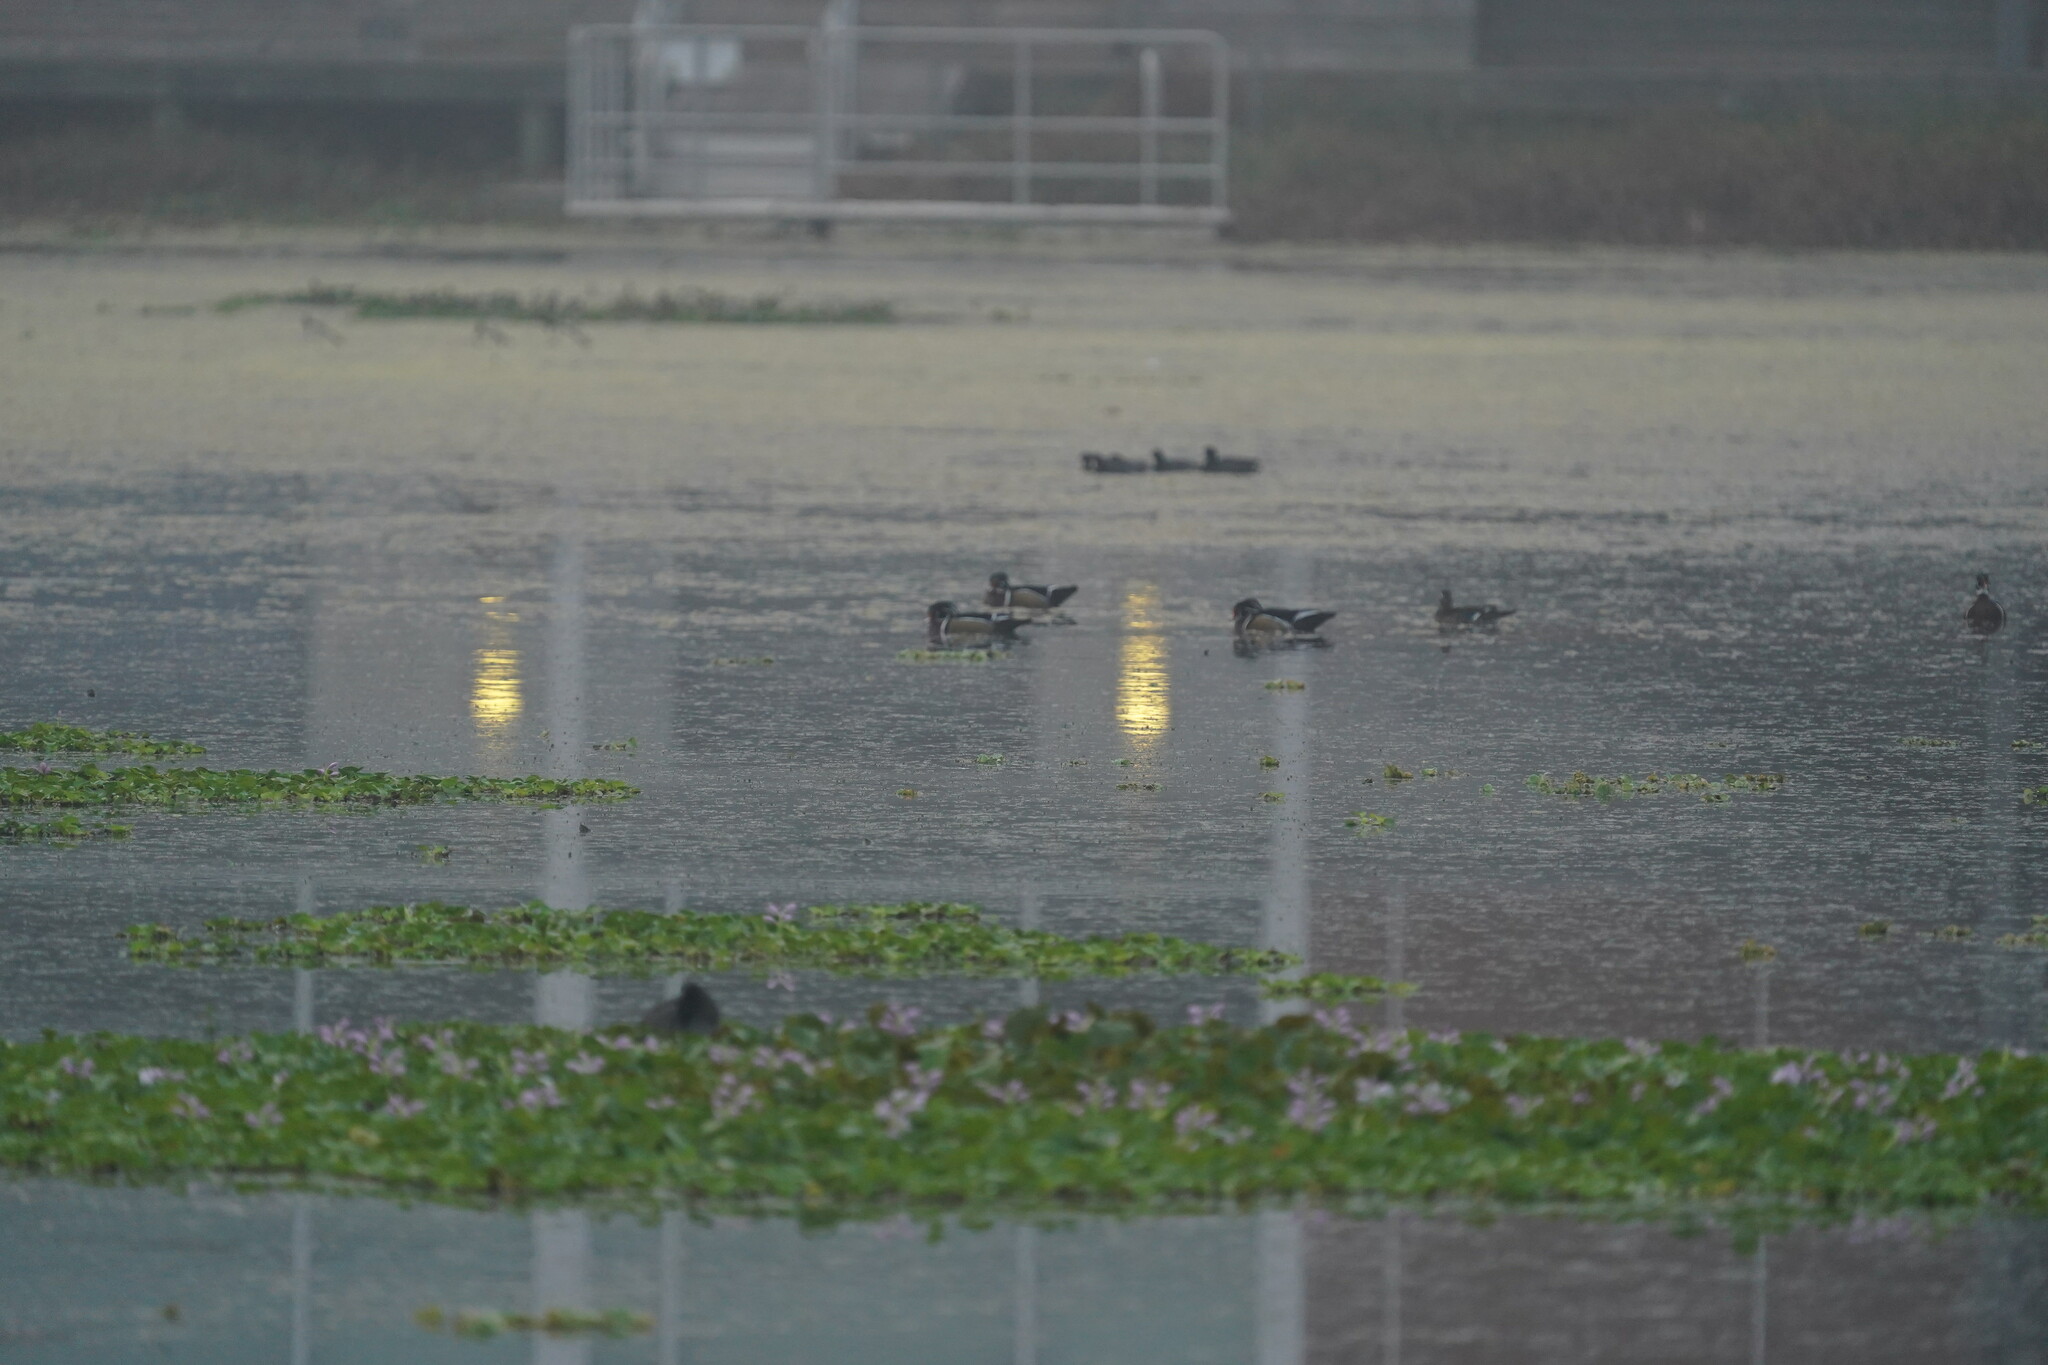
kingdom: Animalia
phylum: Chordata
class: Aves
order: Anseriformes
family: Anatidae
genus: Aix
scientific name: Aix sponsa
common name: Wood duck
